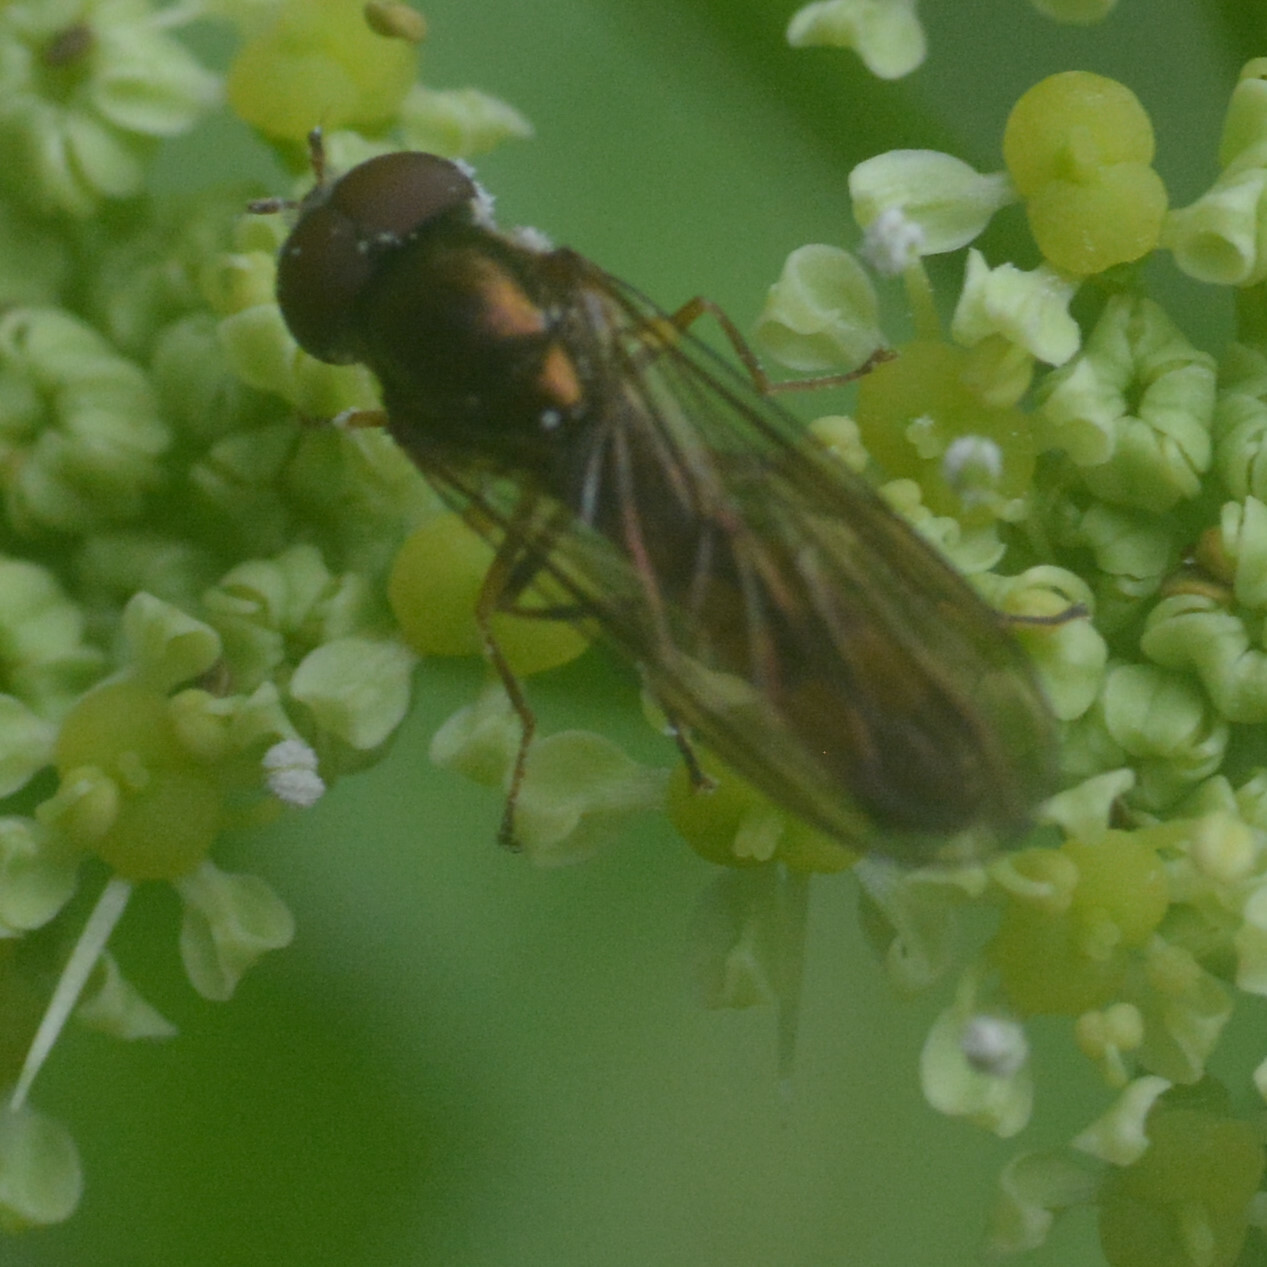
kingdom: Animalia
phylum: Arthropoda
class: Insecta
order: Diptera
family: Syrphidae
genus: Melanostoma
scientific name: Melanostoma scalare
